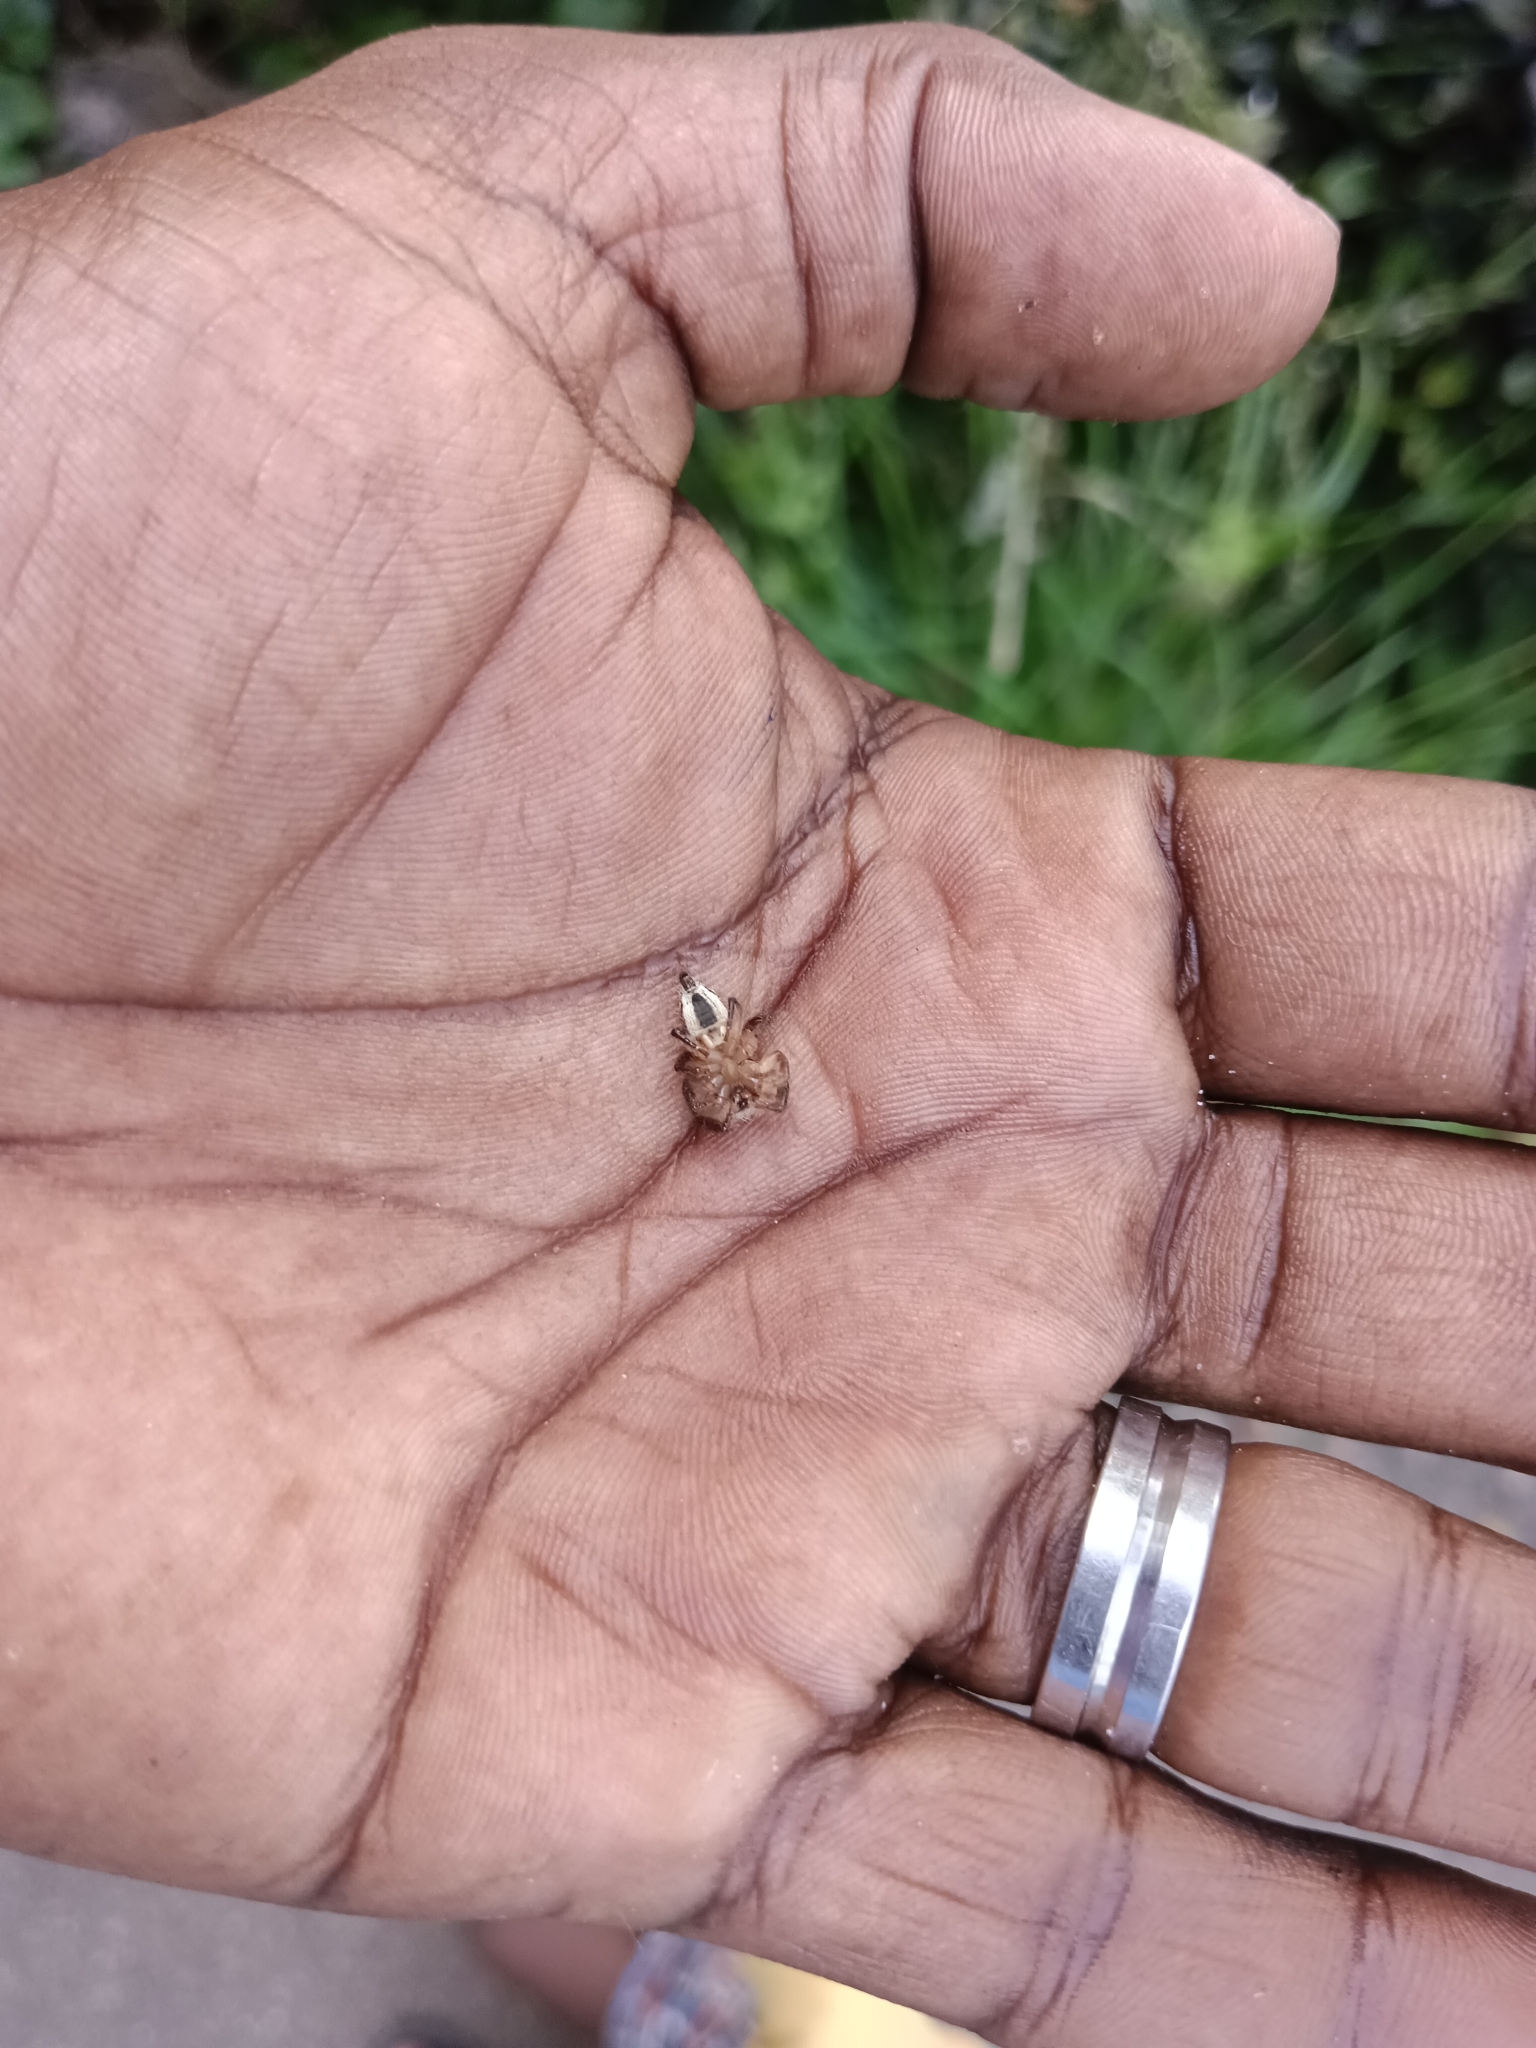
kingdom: Animalia
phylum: Arthropoda
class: Arachnida
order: Araneae
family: Salticidae
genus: Hyllus
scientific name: Hyllus semicupreus
